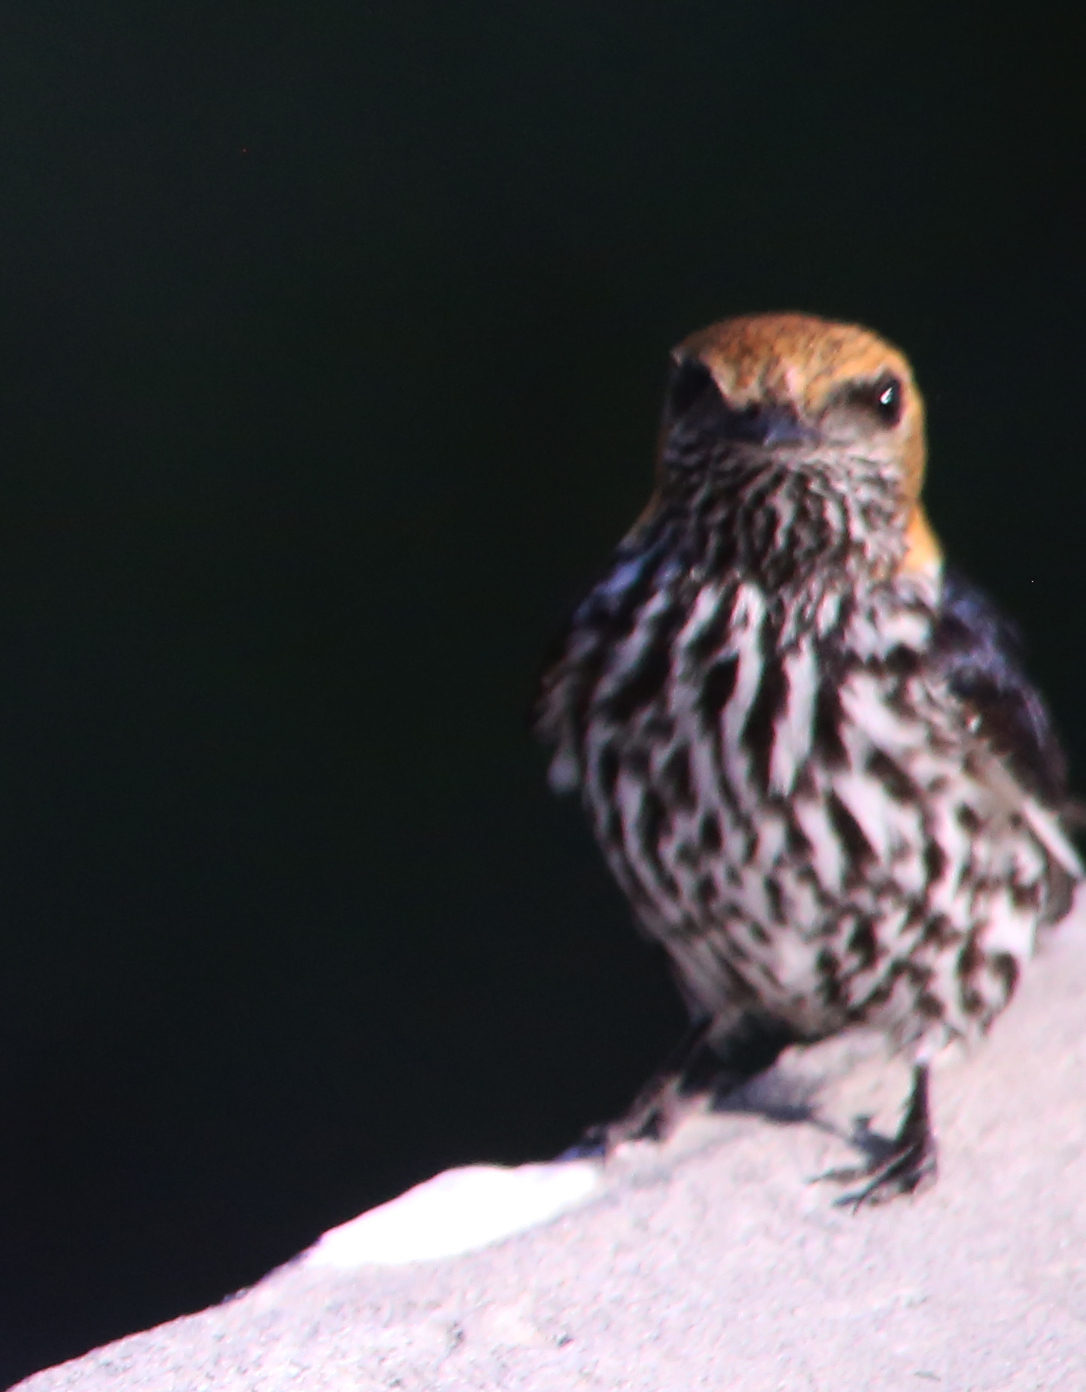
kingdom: Animalia
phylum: Chordata
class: Aves
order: Passeriformes
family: Hirundinidae
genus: Cecropis
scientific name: Cecropis abyssinica
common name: Lesser striped-swallow
